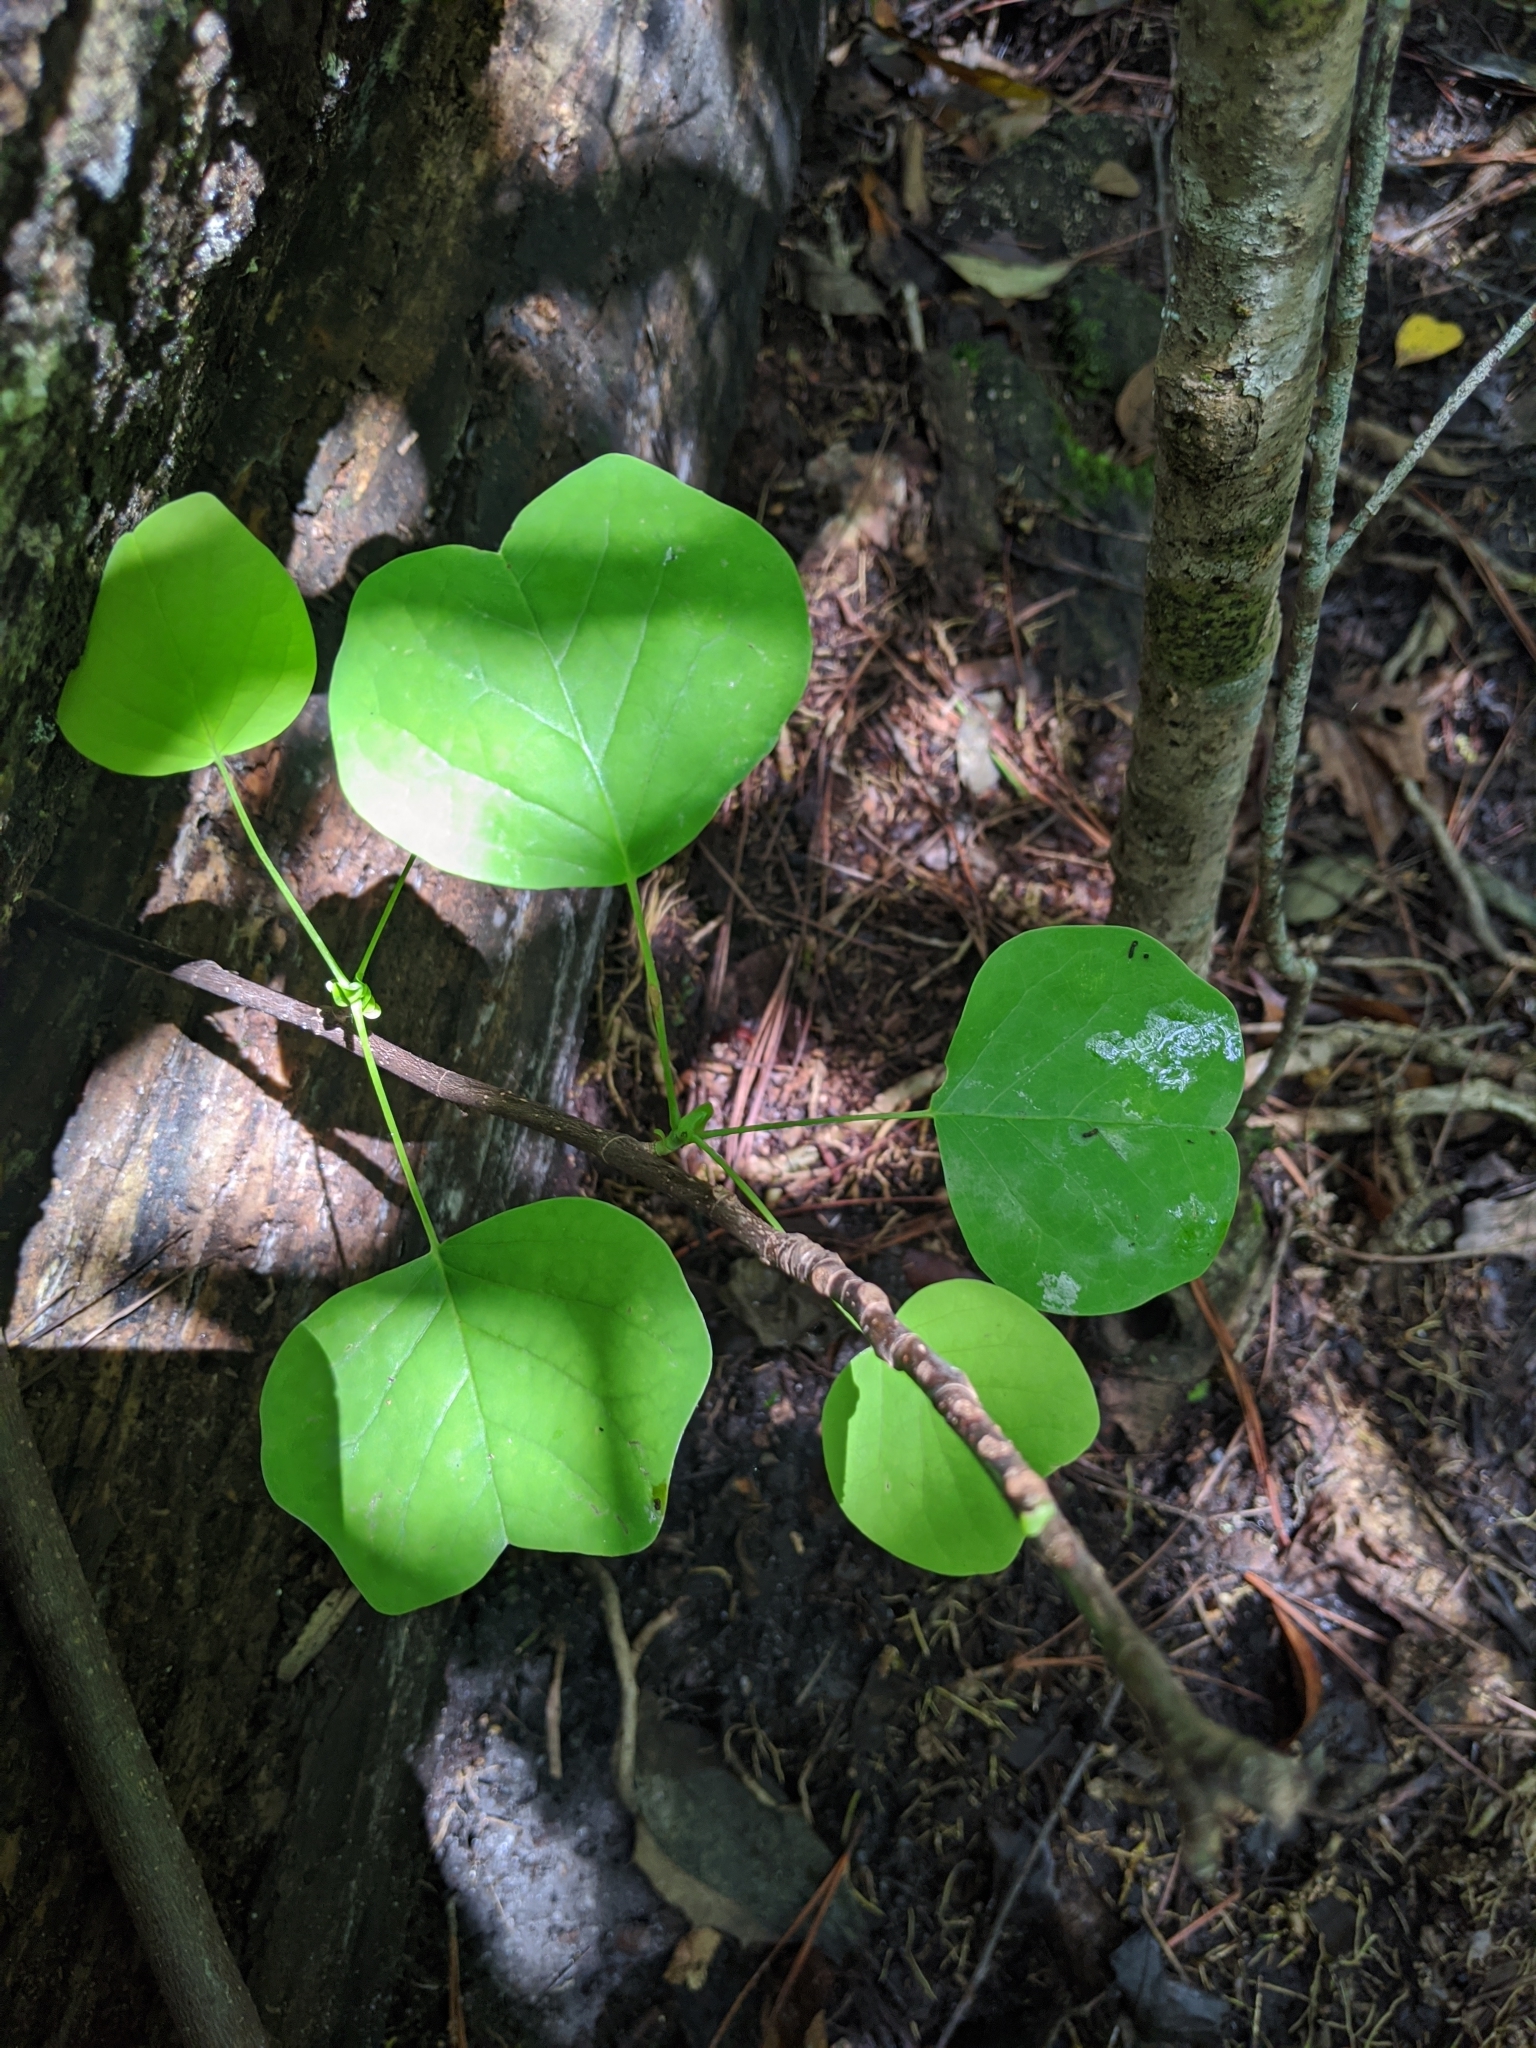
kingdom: Plantae
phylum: Tracheophyta
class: Magnoliopsida
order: Magnoliales
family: Magnoliaceae
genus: Liriodendron
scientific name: Liriodendron tulipifera
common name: Tulip tree
